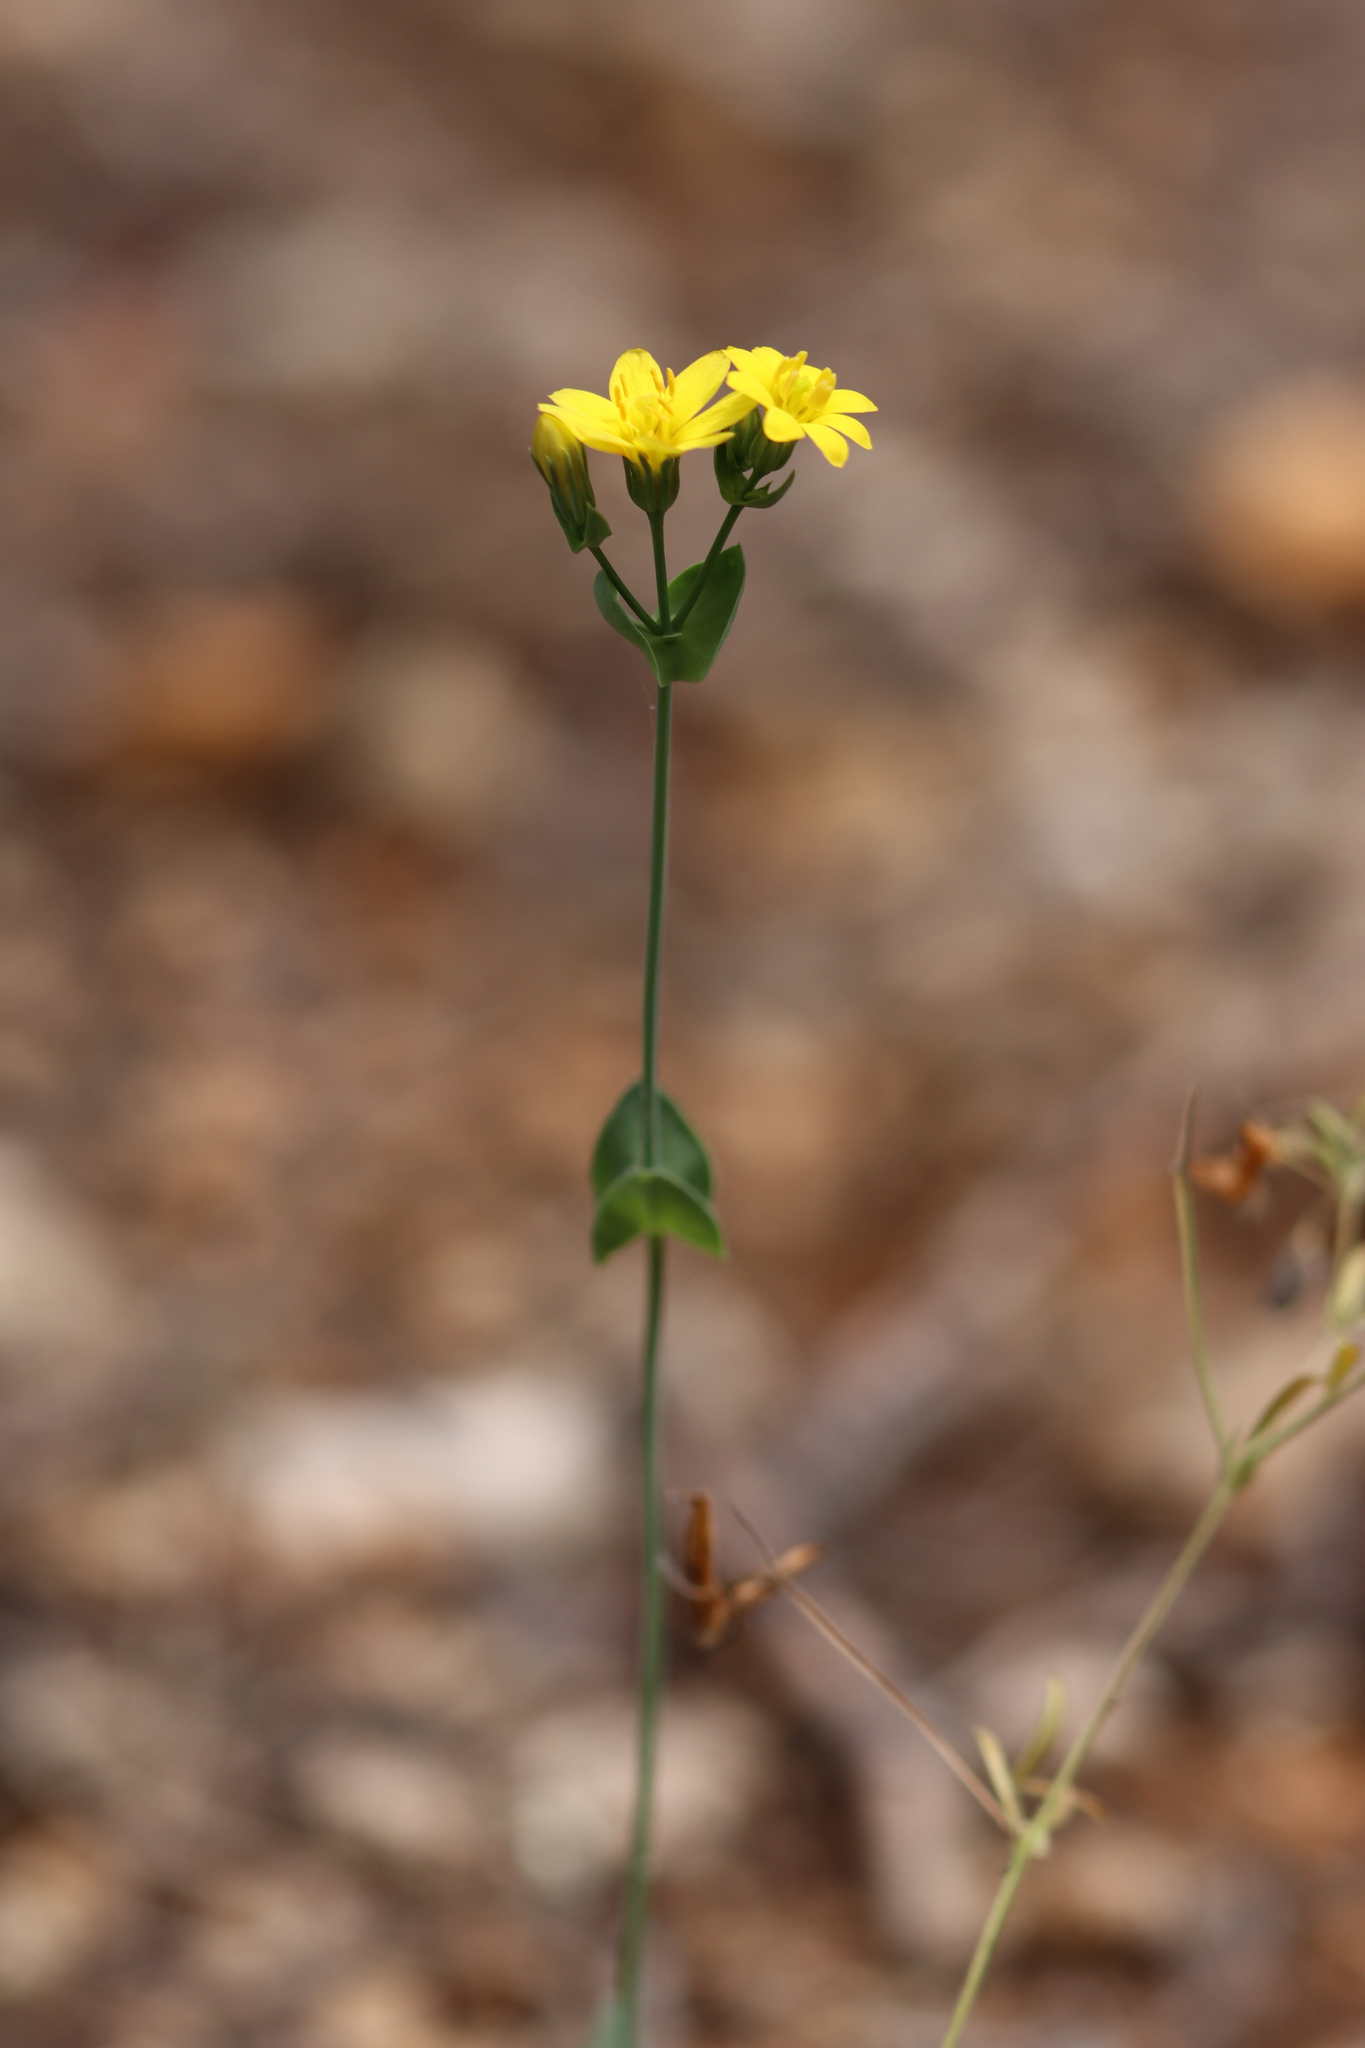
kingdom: Plantae
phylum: Tracheophyta
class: Magnoliopsida
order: Gentianales
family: Gentianaceae
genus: Blackstonia
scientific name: Blackstonia perfoliata
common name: Yellow-wort
